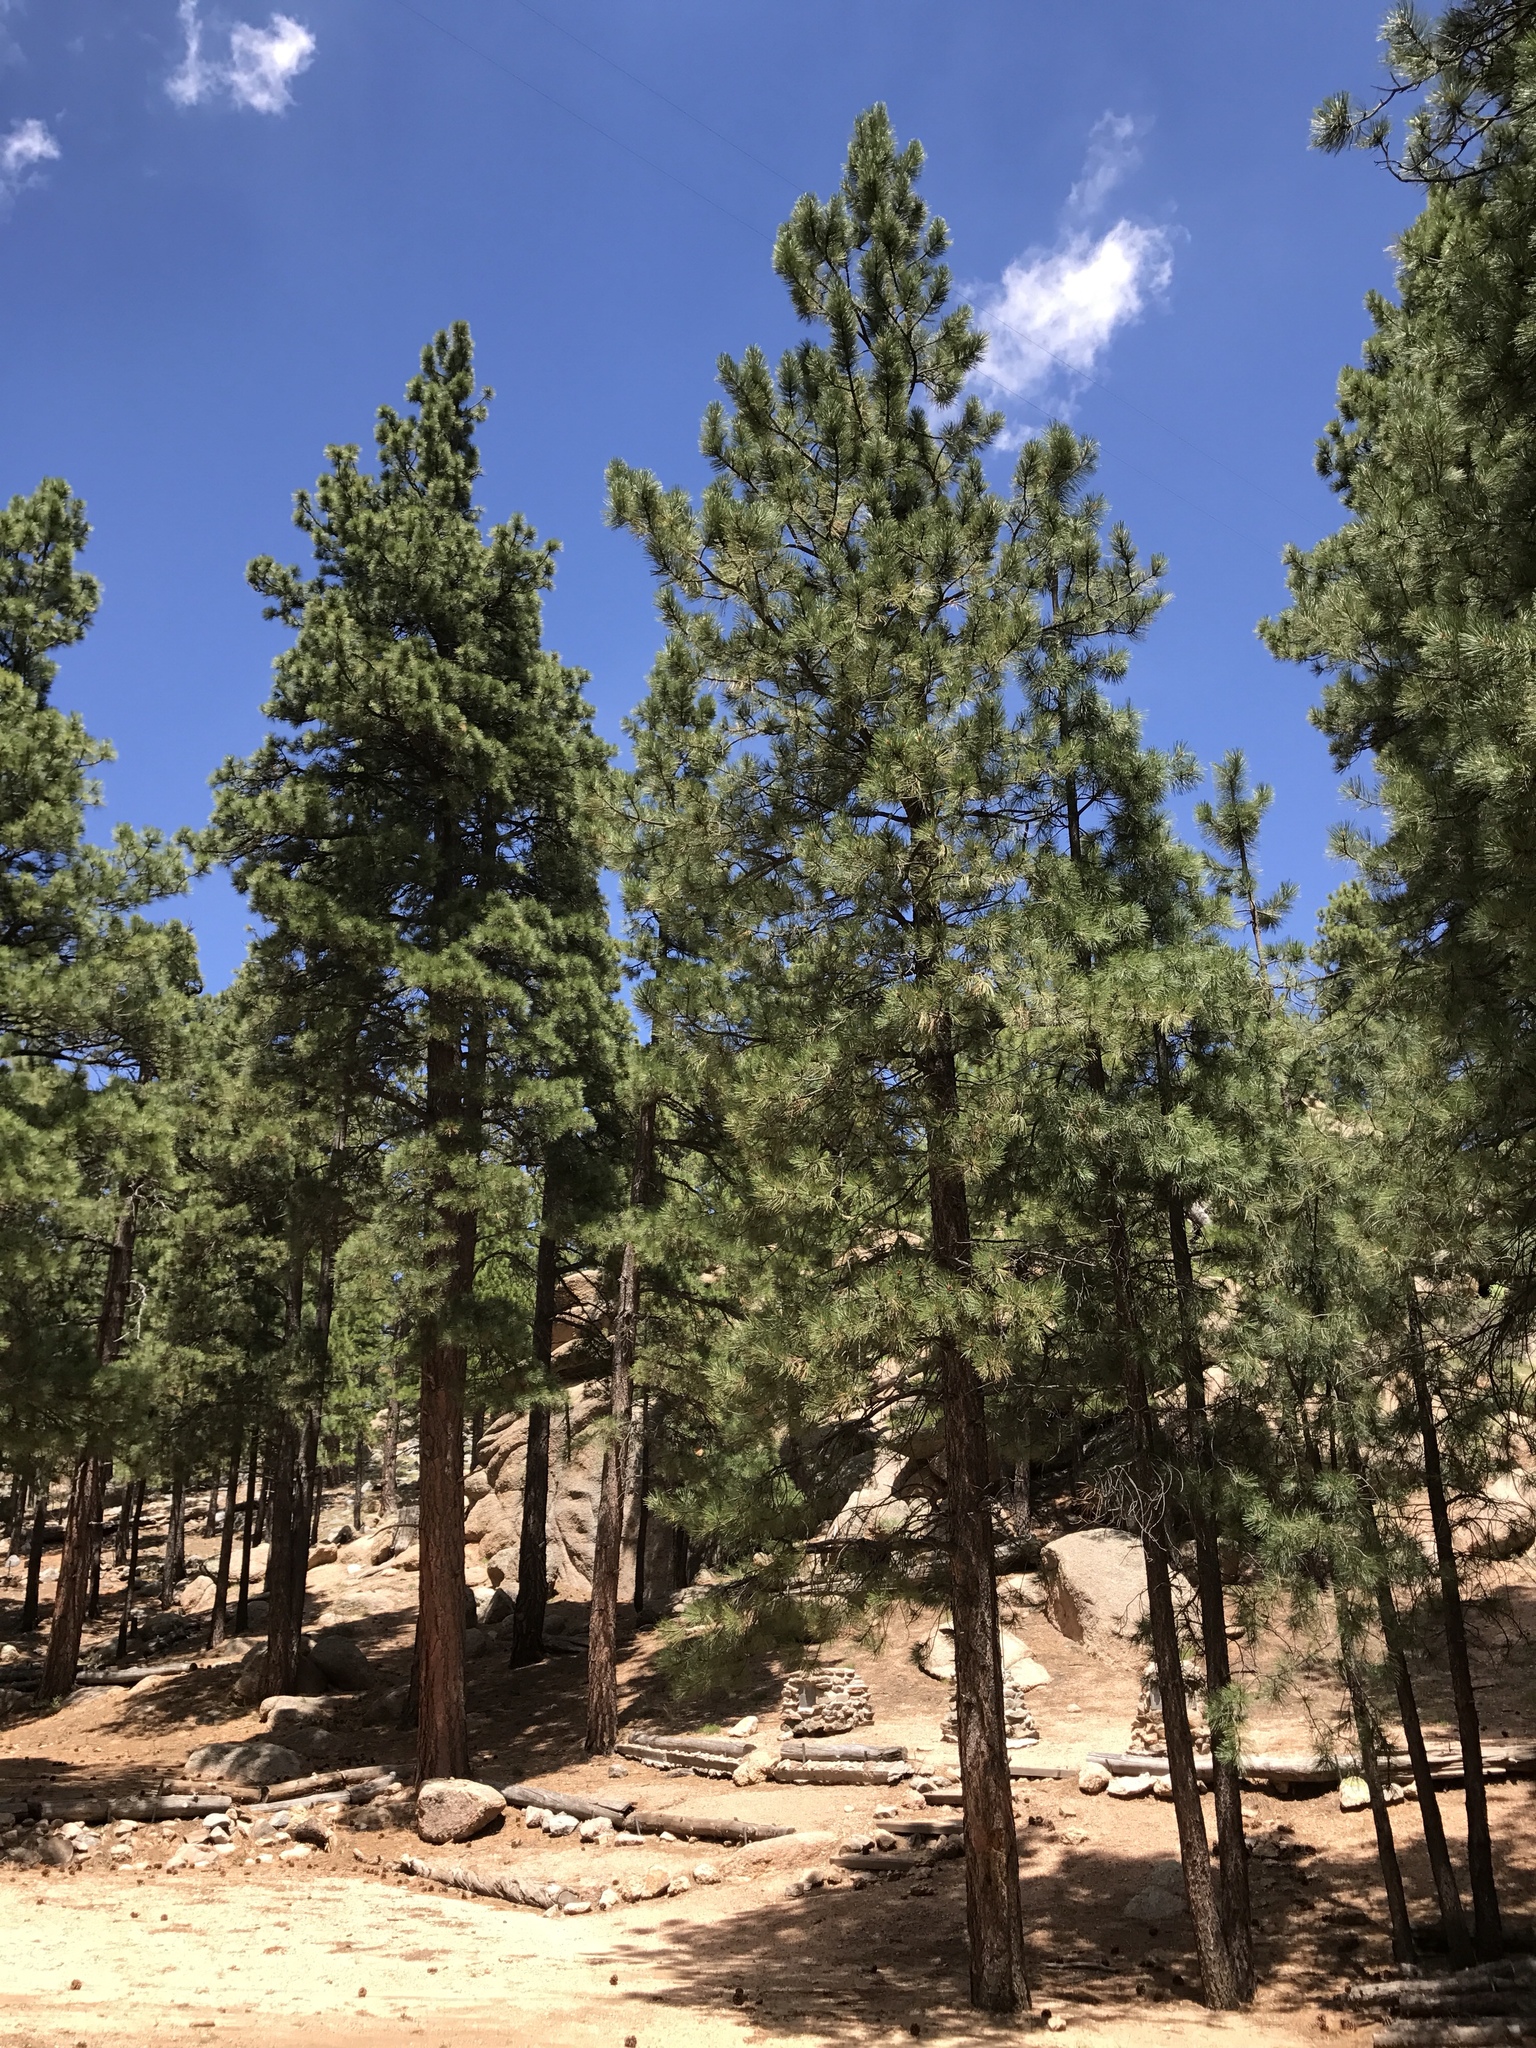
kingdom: Plantae
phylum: Tracheophyta
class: Pinopsida
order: Pinales
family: Pinaceae
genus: Pinus
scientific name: Pinus ponderosa
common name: Western yellow-pine
